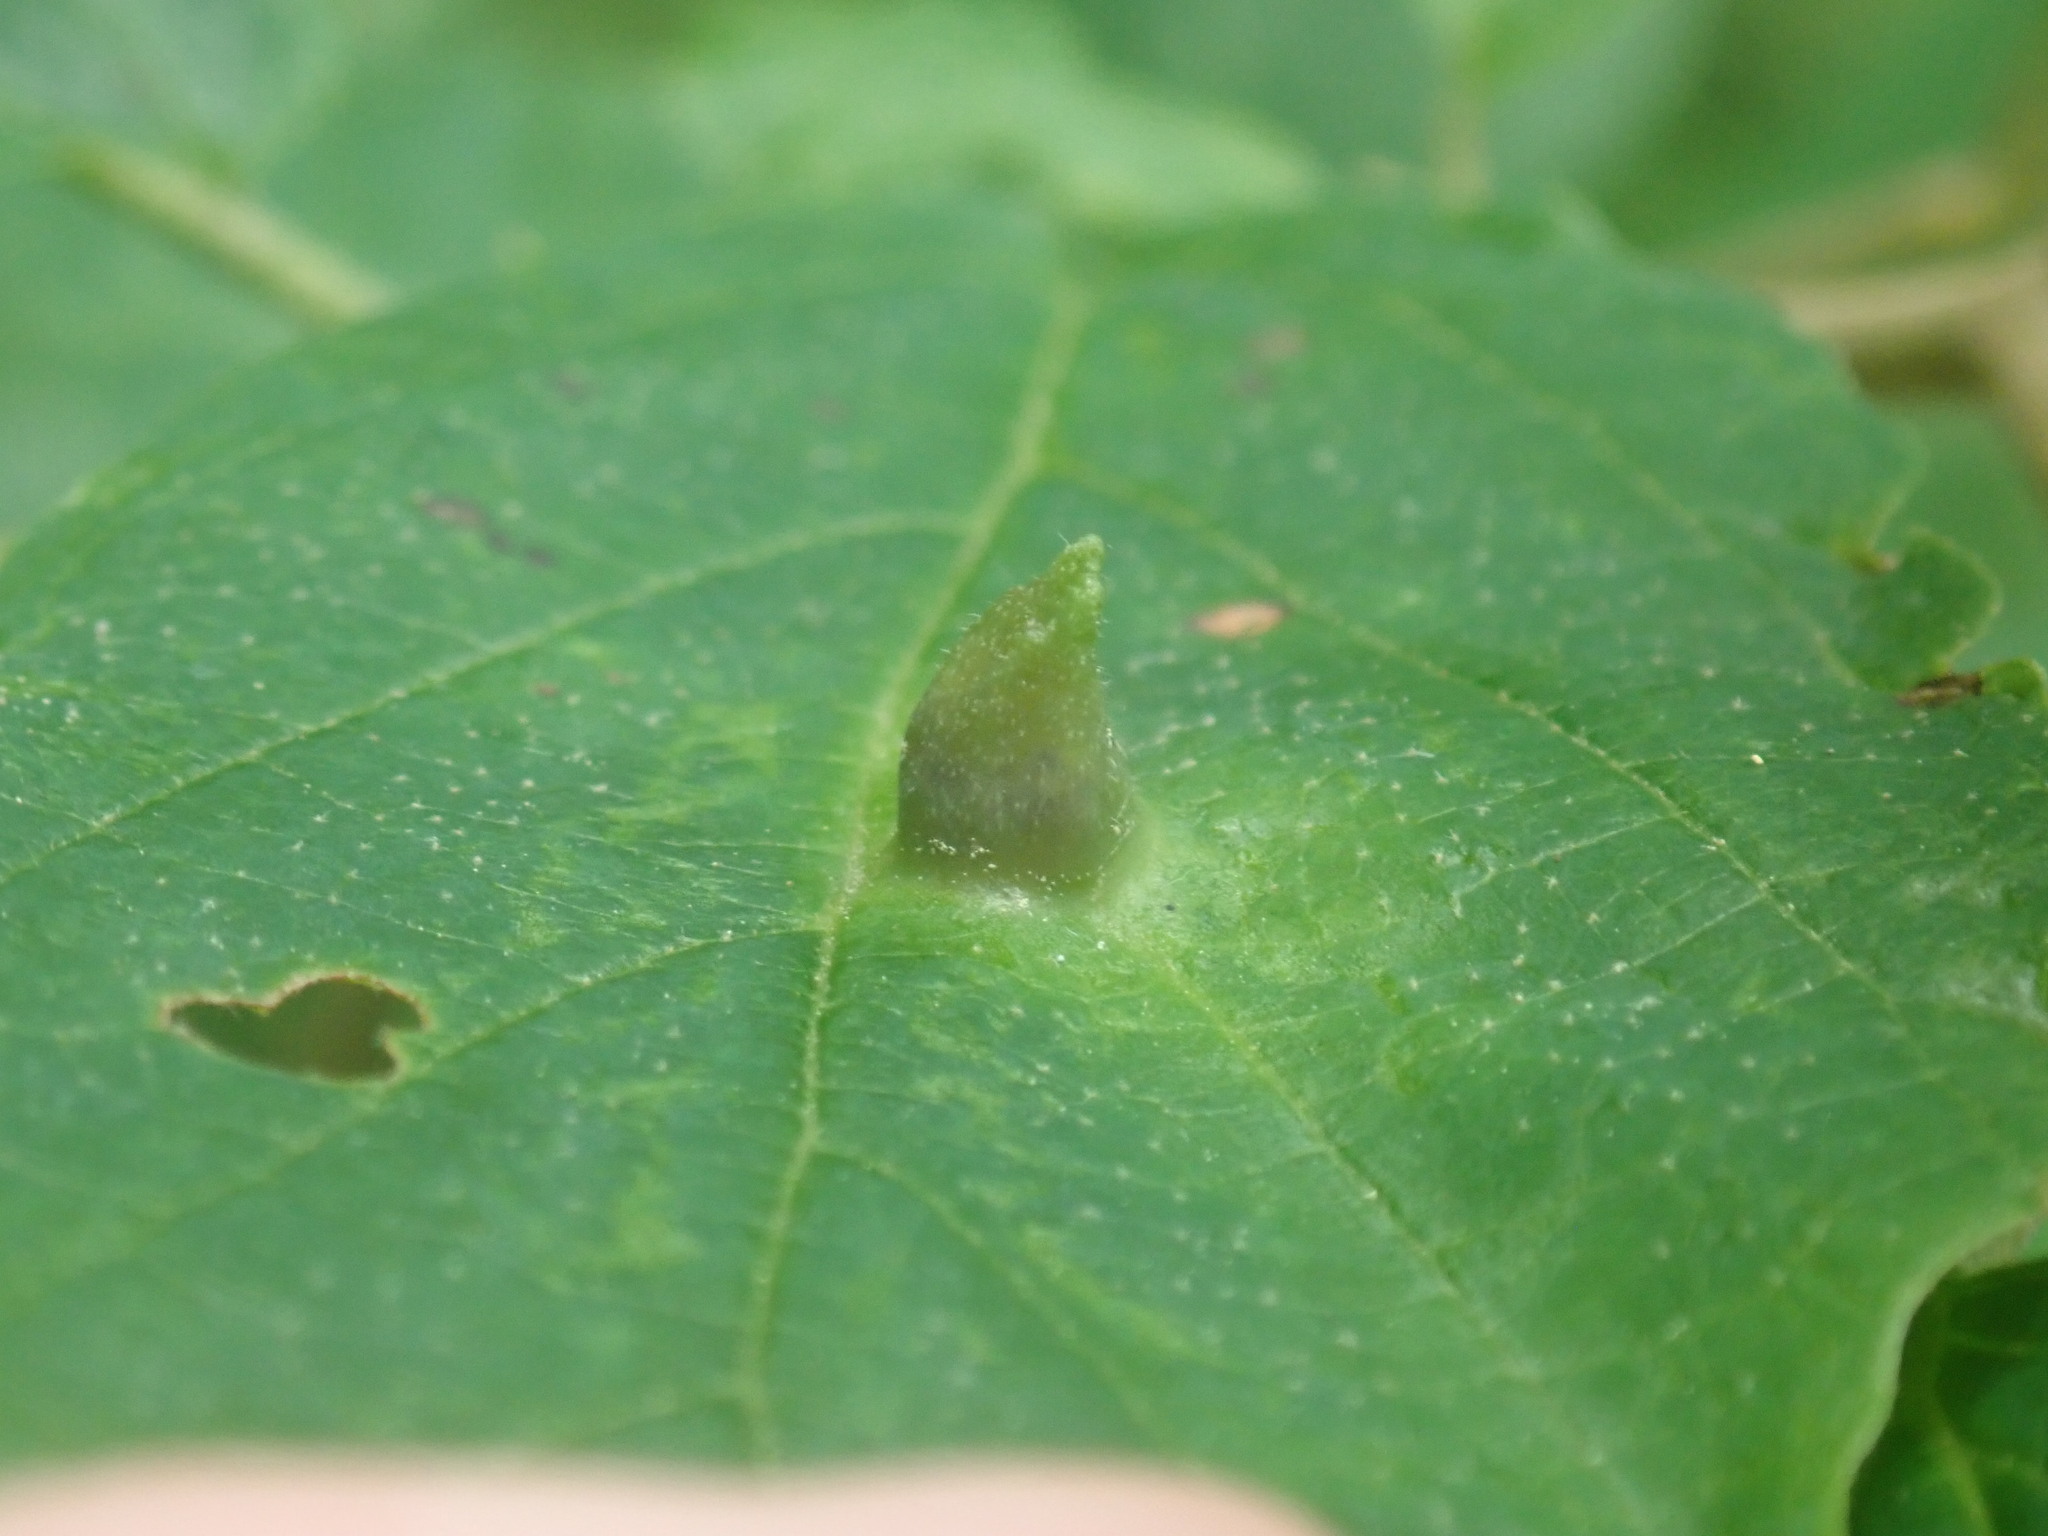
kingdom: Animalia
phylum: Arthropoda
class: Insecta
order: Hemiptera
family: Aphididae
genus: Hormaphis
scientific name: Hormaphis hamamelidis
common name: Witch-hazel cone gall aphid
